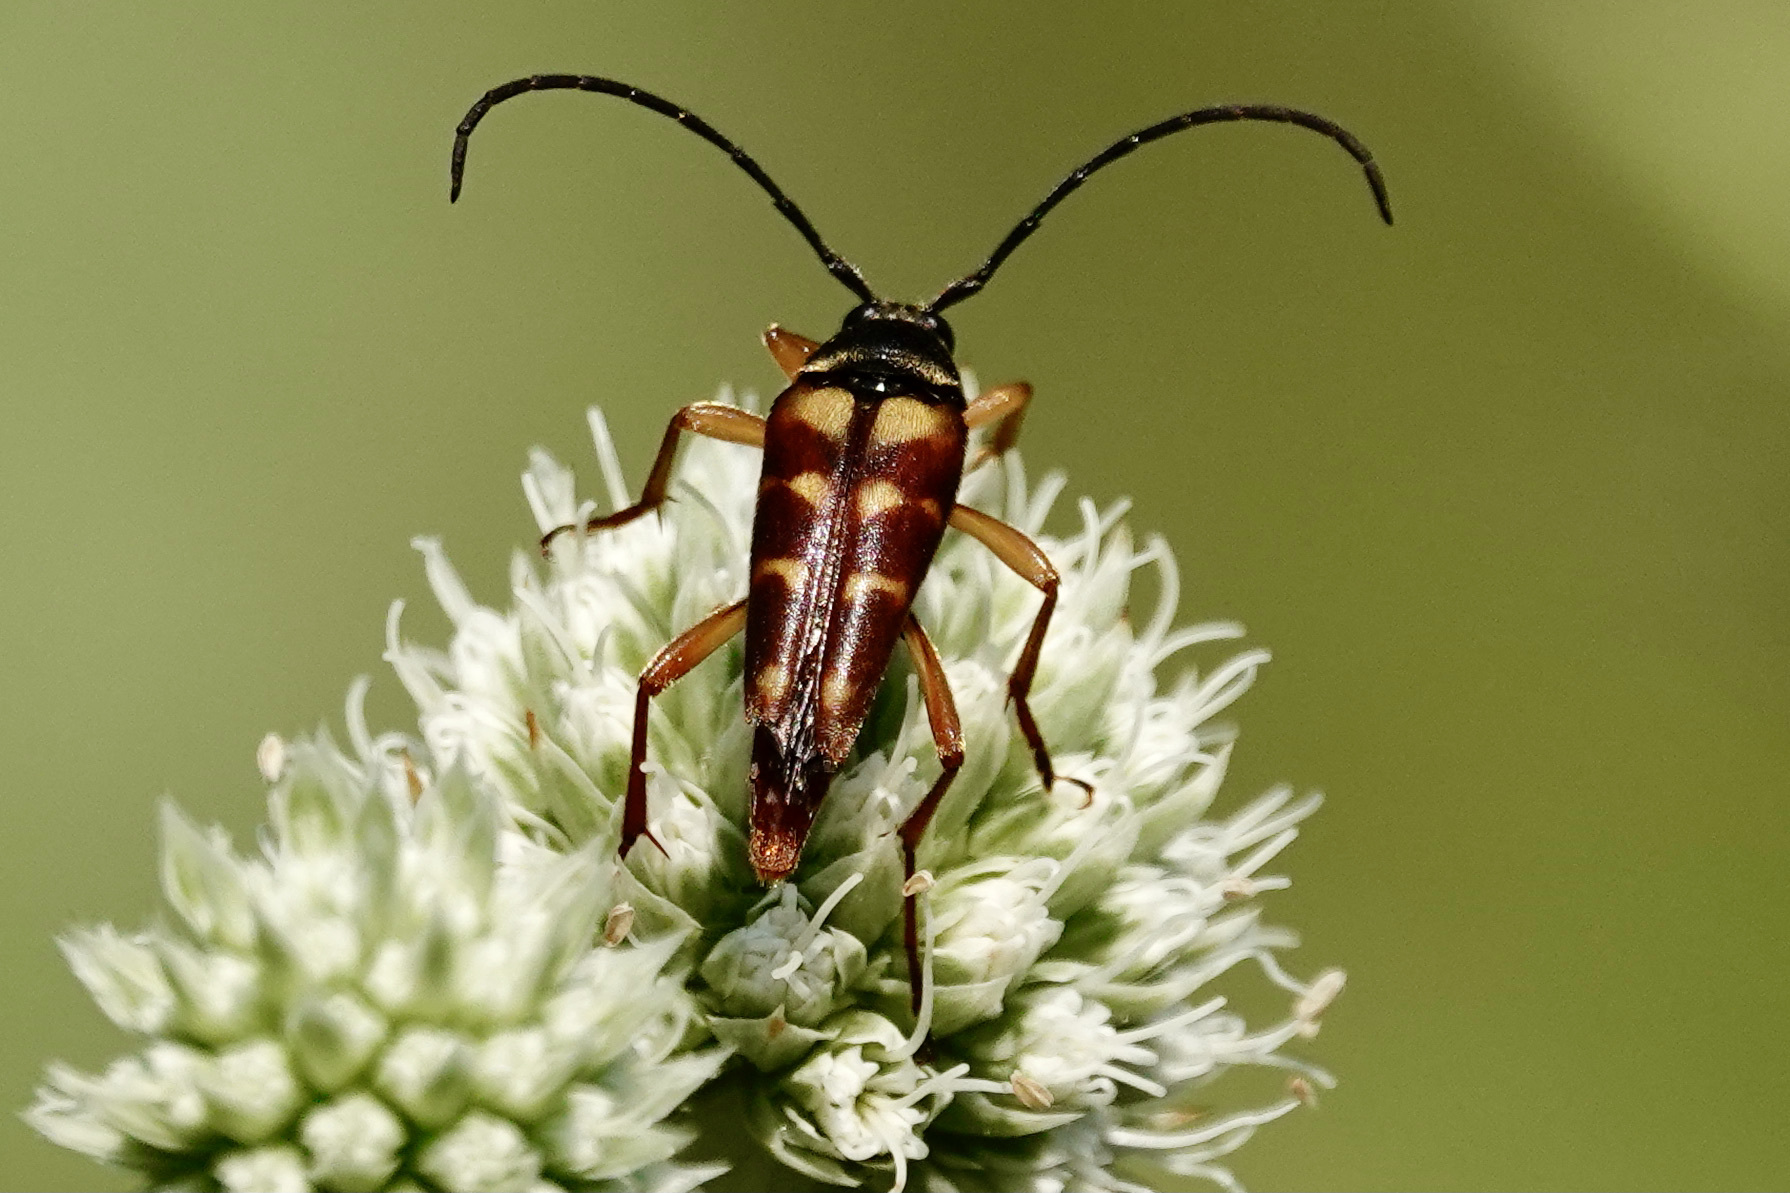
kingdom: Animalia
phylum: Arthropoda
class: Insecta
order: Coleoptera
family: Cerambycidae
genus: Typocerus
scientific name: Typocerus velutinus
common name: Banded longhorn beetle
